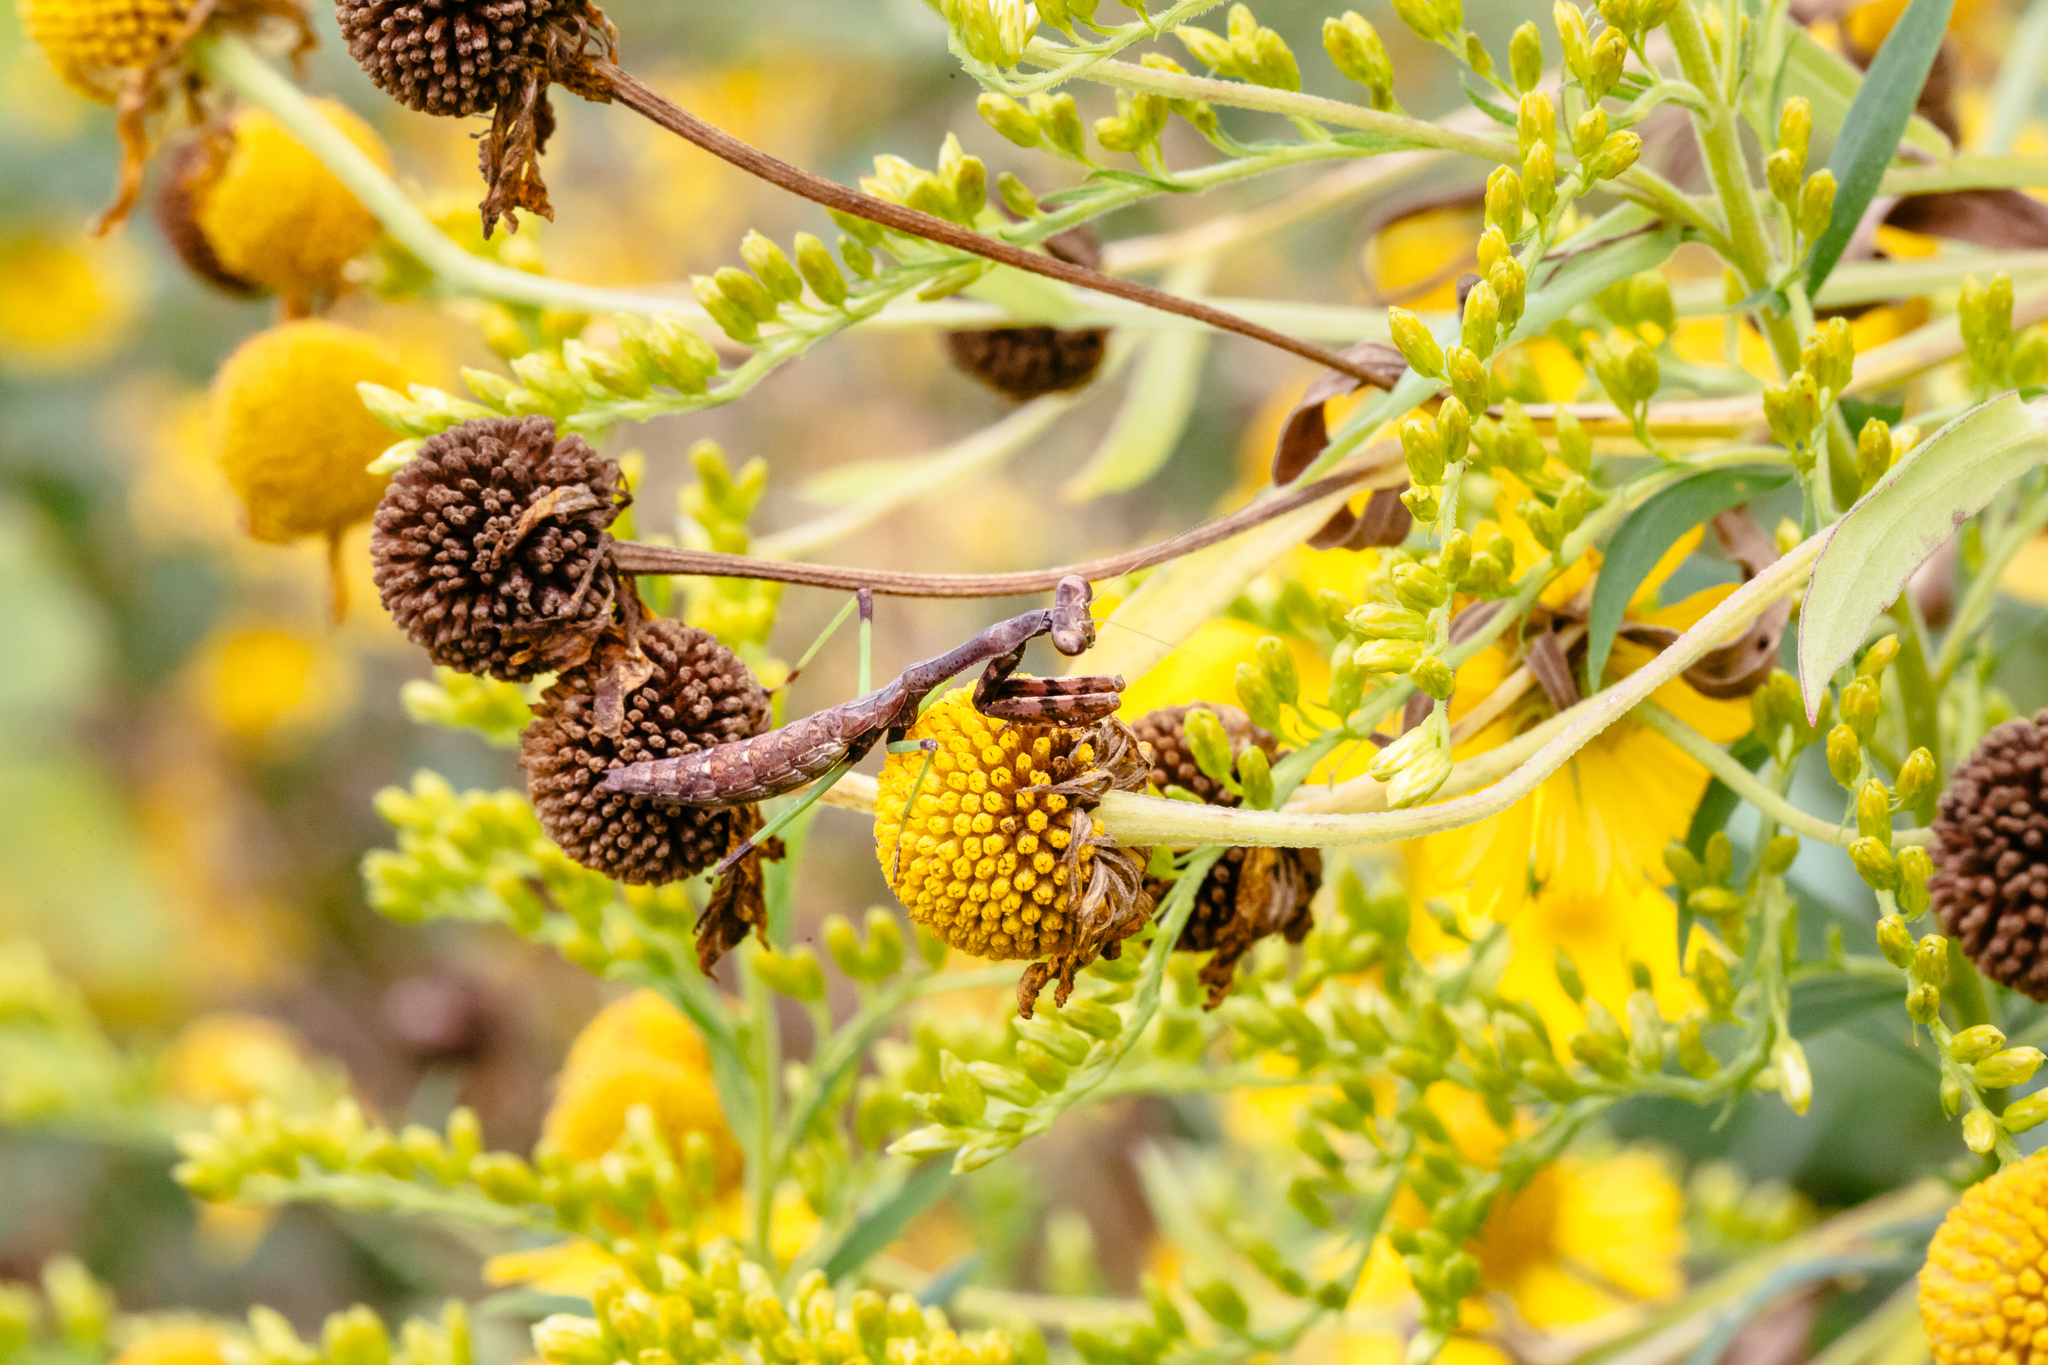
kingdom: Animalia
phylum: Arthropoda
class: Insecta
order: Mantodea
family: Mantidae
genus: Stagmomantis
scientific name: Stagmomantis carolina
